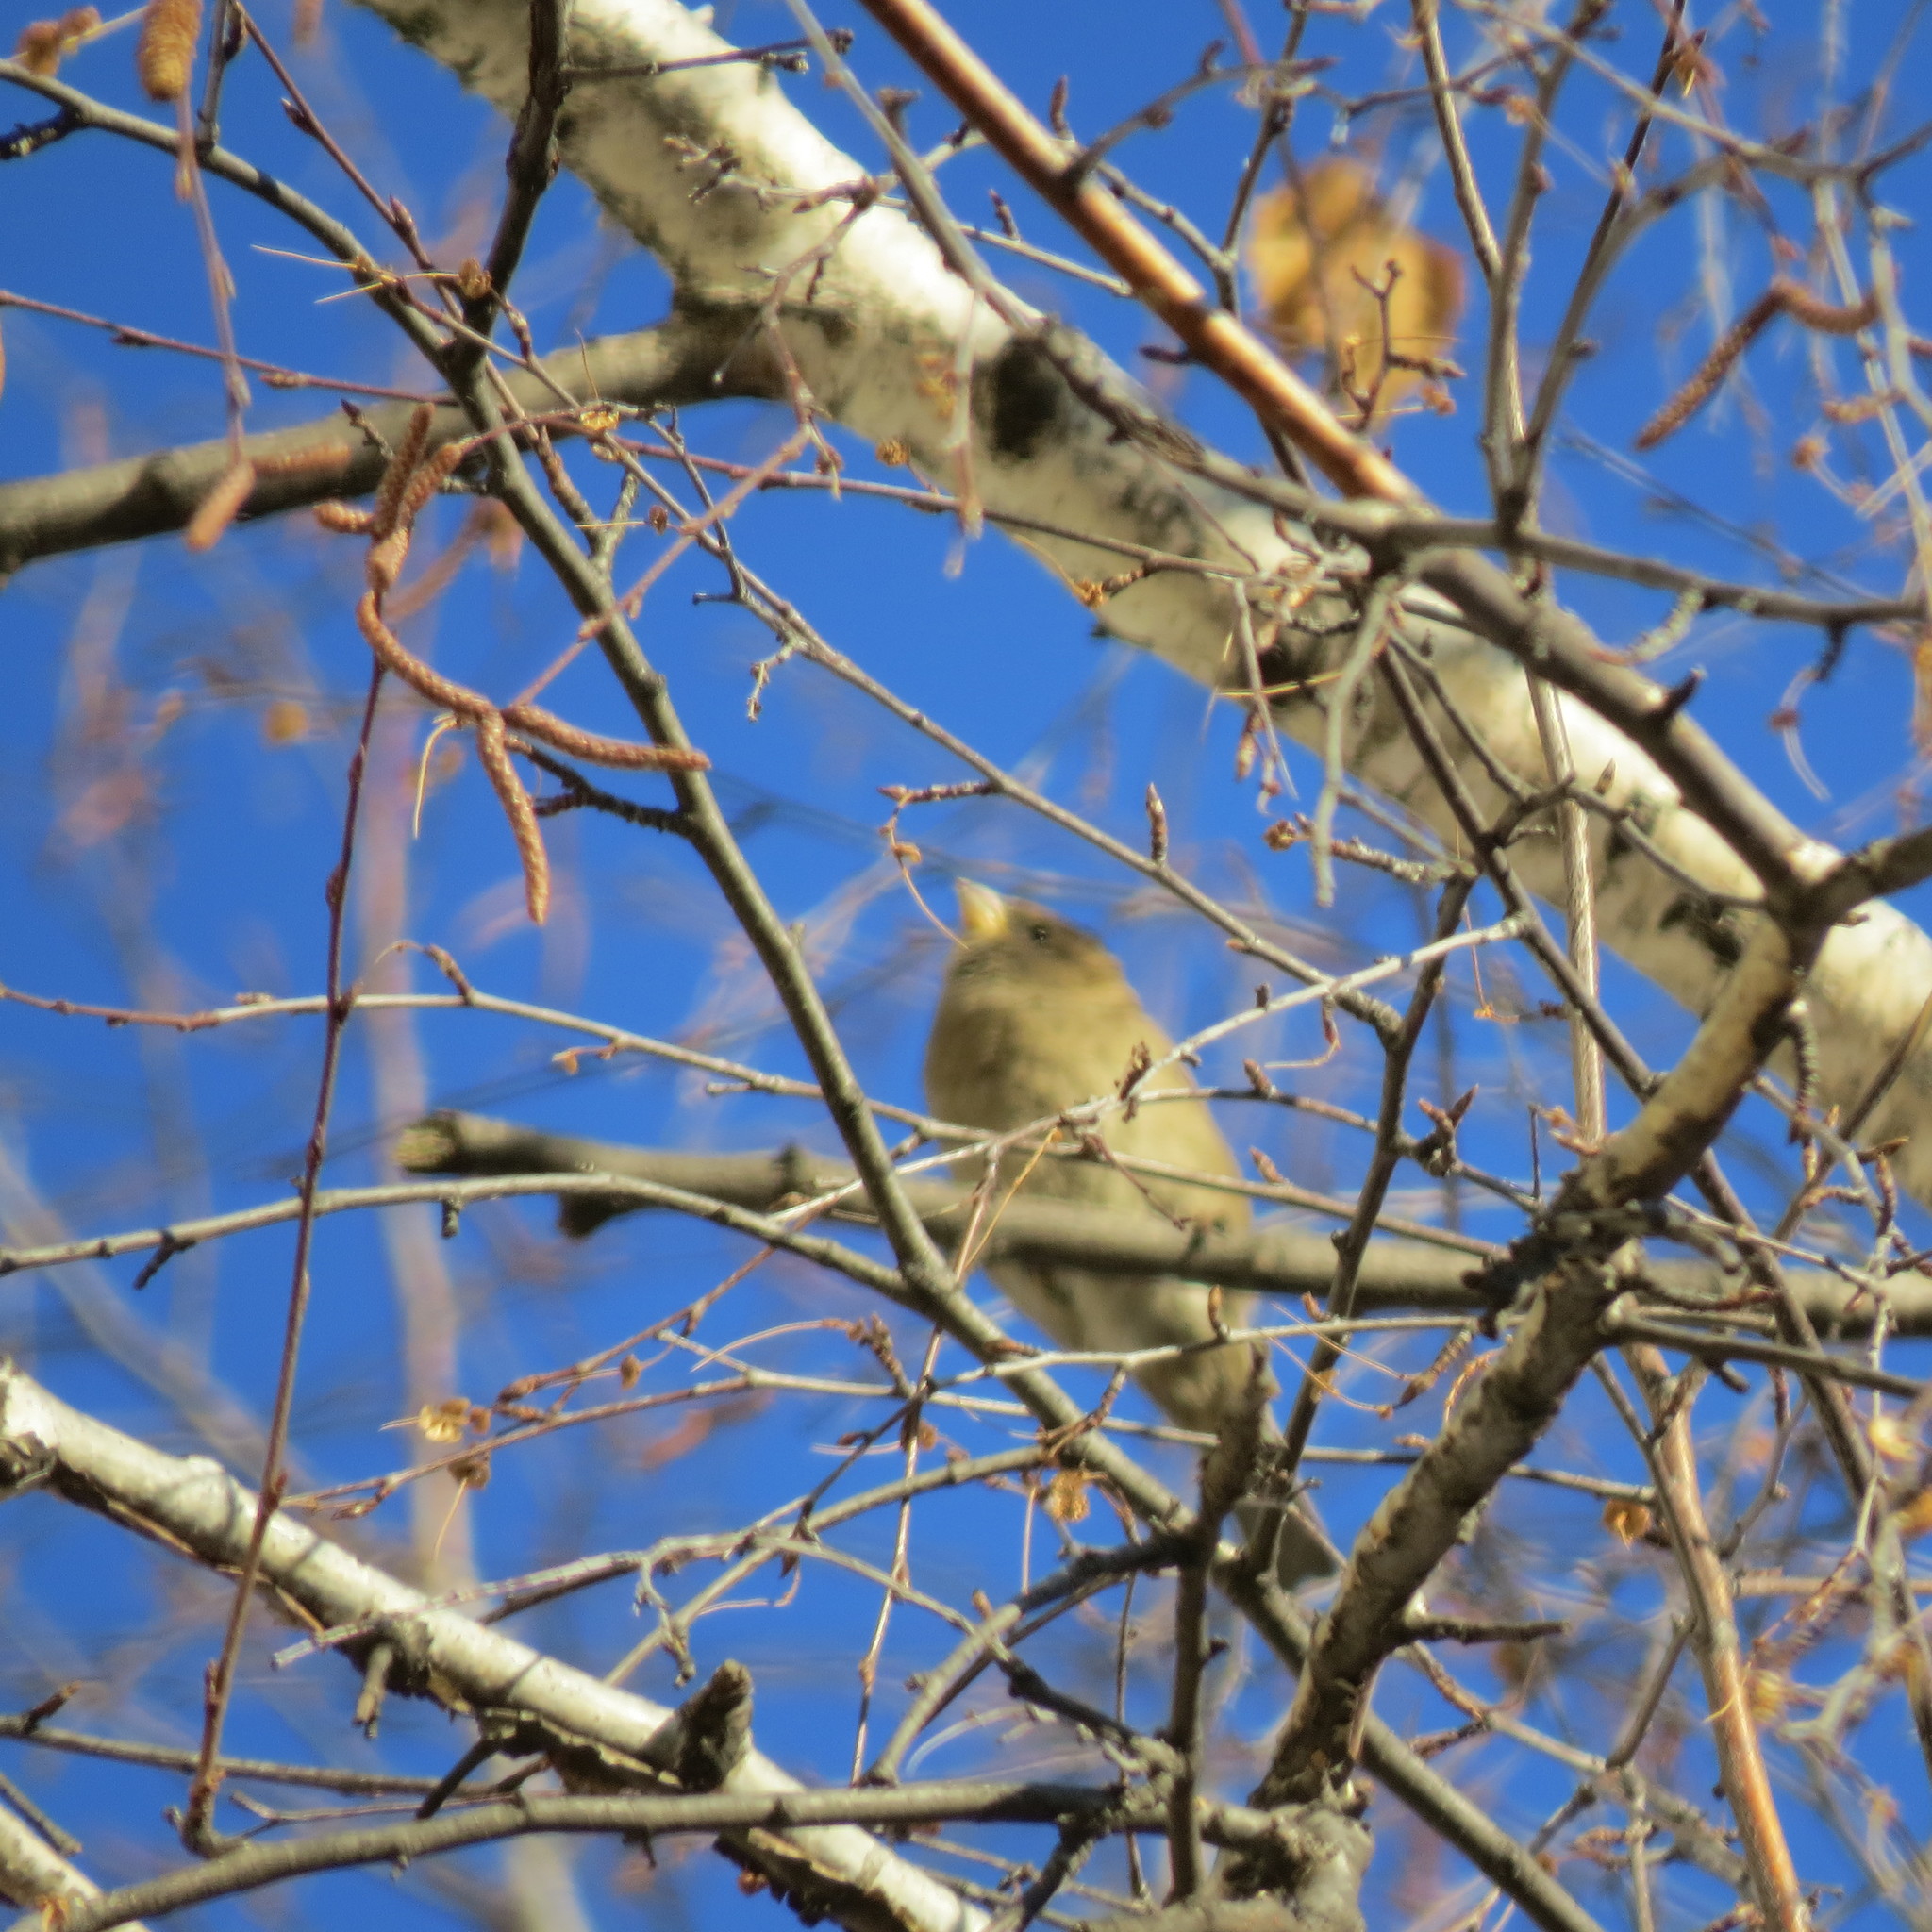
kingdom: Animalia
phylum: Chordata
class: Aves
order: Passeriformes
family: Passeridae
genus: Passer
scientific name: Passer domesticus
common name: House sparrow
